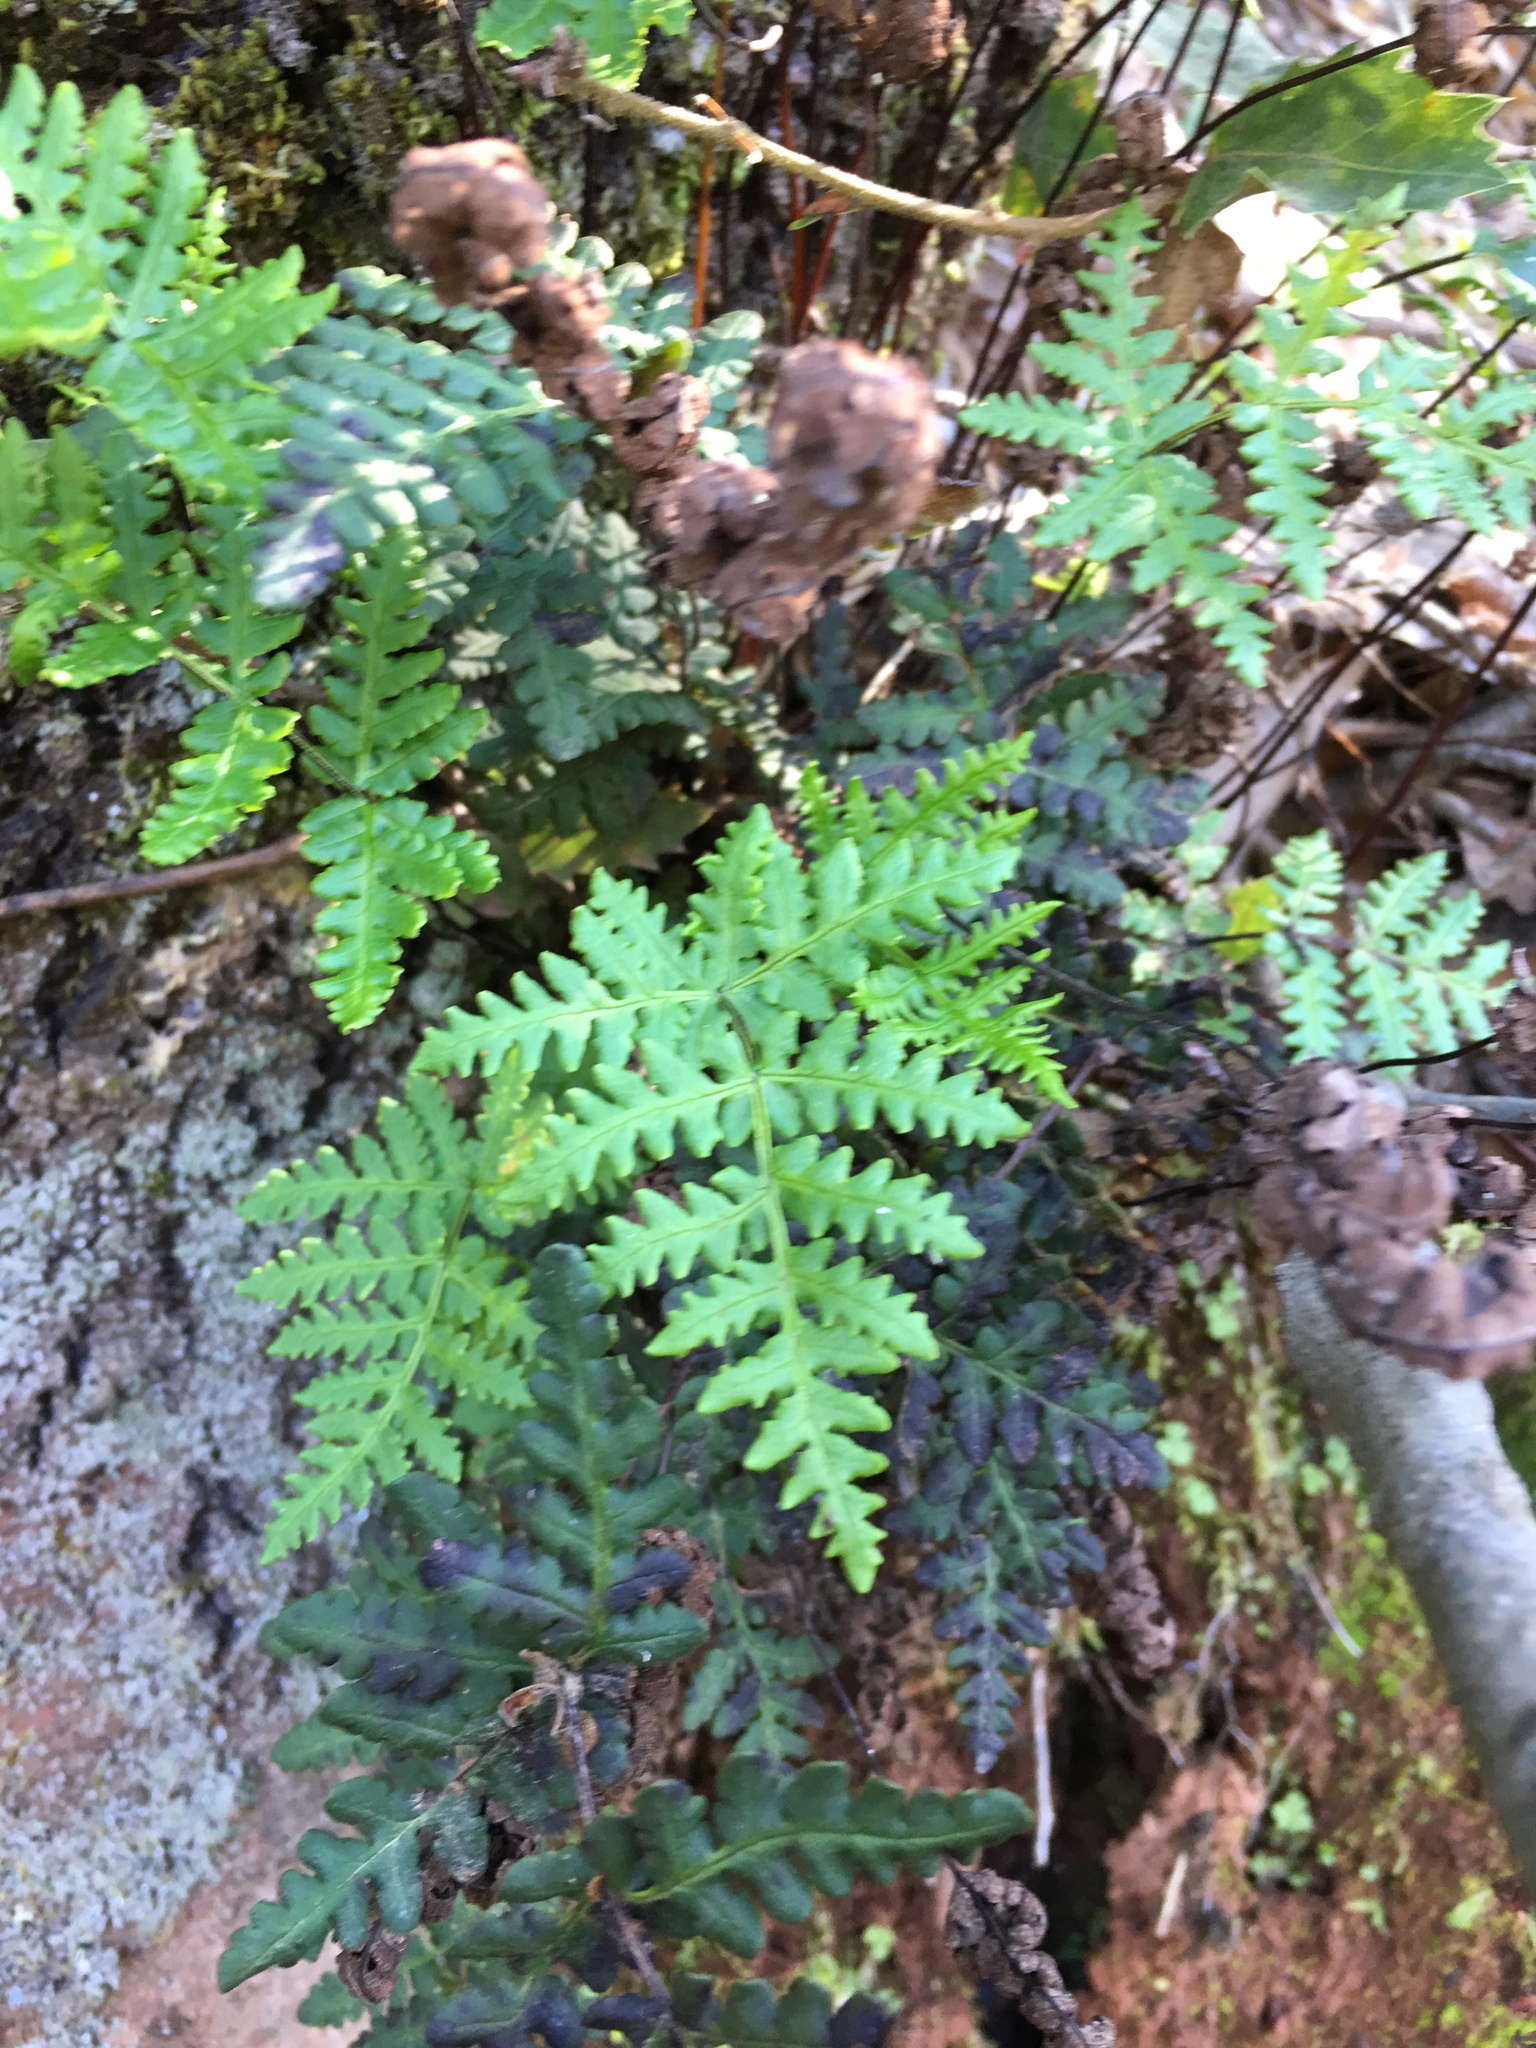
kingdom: Plantae
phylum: Tracheophyta
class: Polypodiopsida
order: Polypodiales
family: Pteridaceae
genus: Pentagramma
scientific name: Pentagramma triangularis
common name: Gold fern
